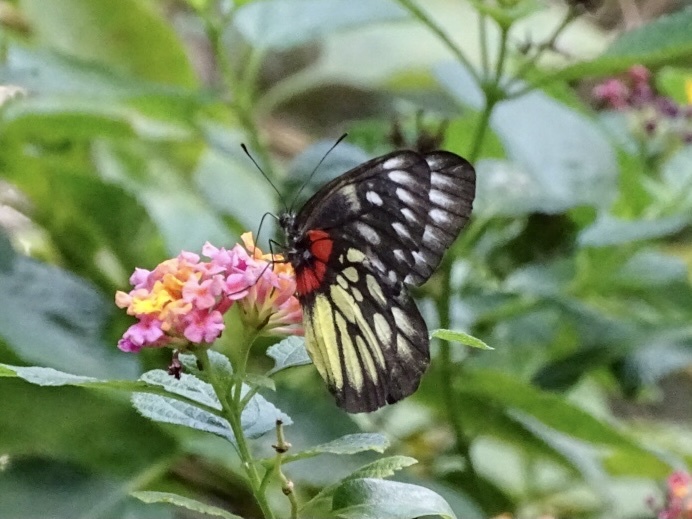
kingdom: Animalia
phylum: Arthropoda
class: Insecta
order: Lepidoptera
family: Pieridae
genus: Delias
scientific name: Delias pasithoe
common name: Red-base jezebel
